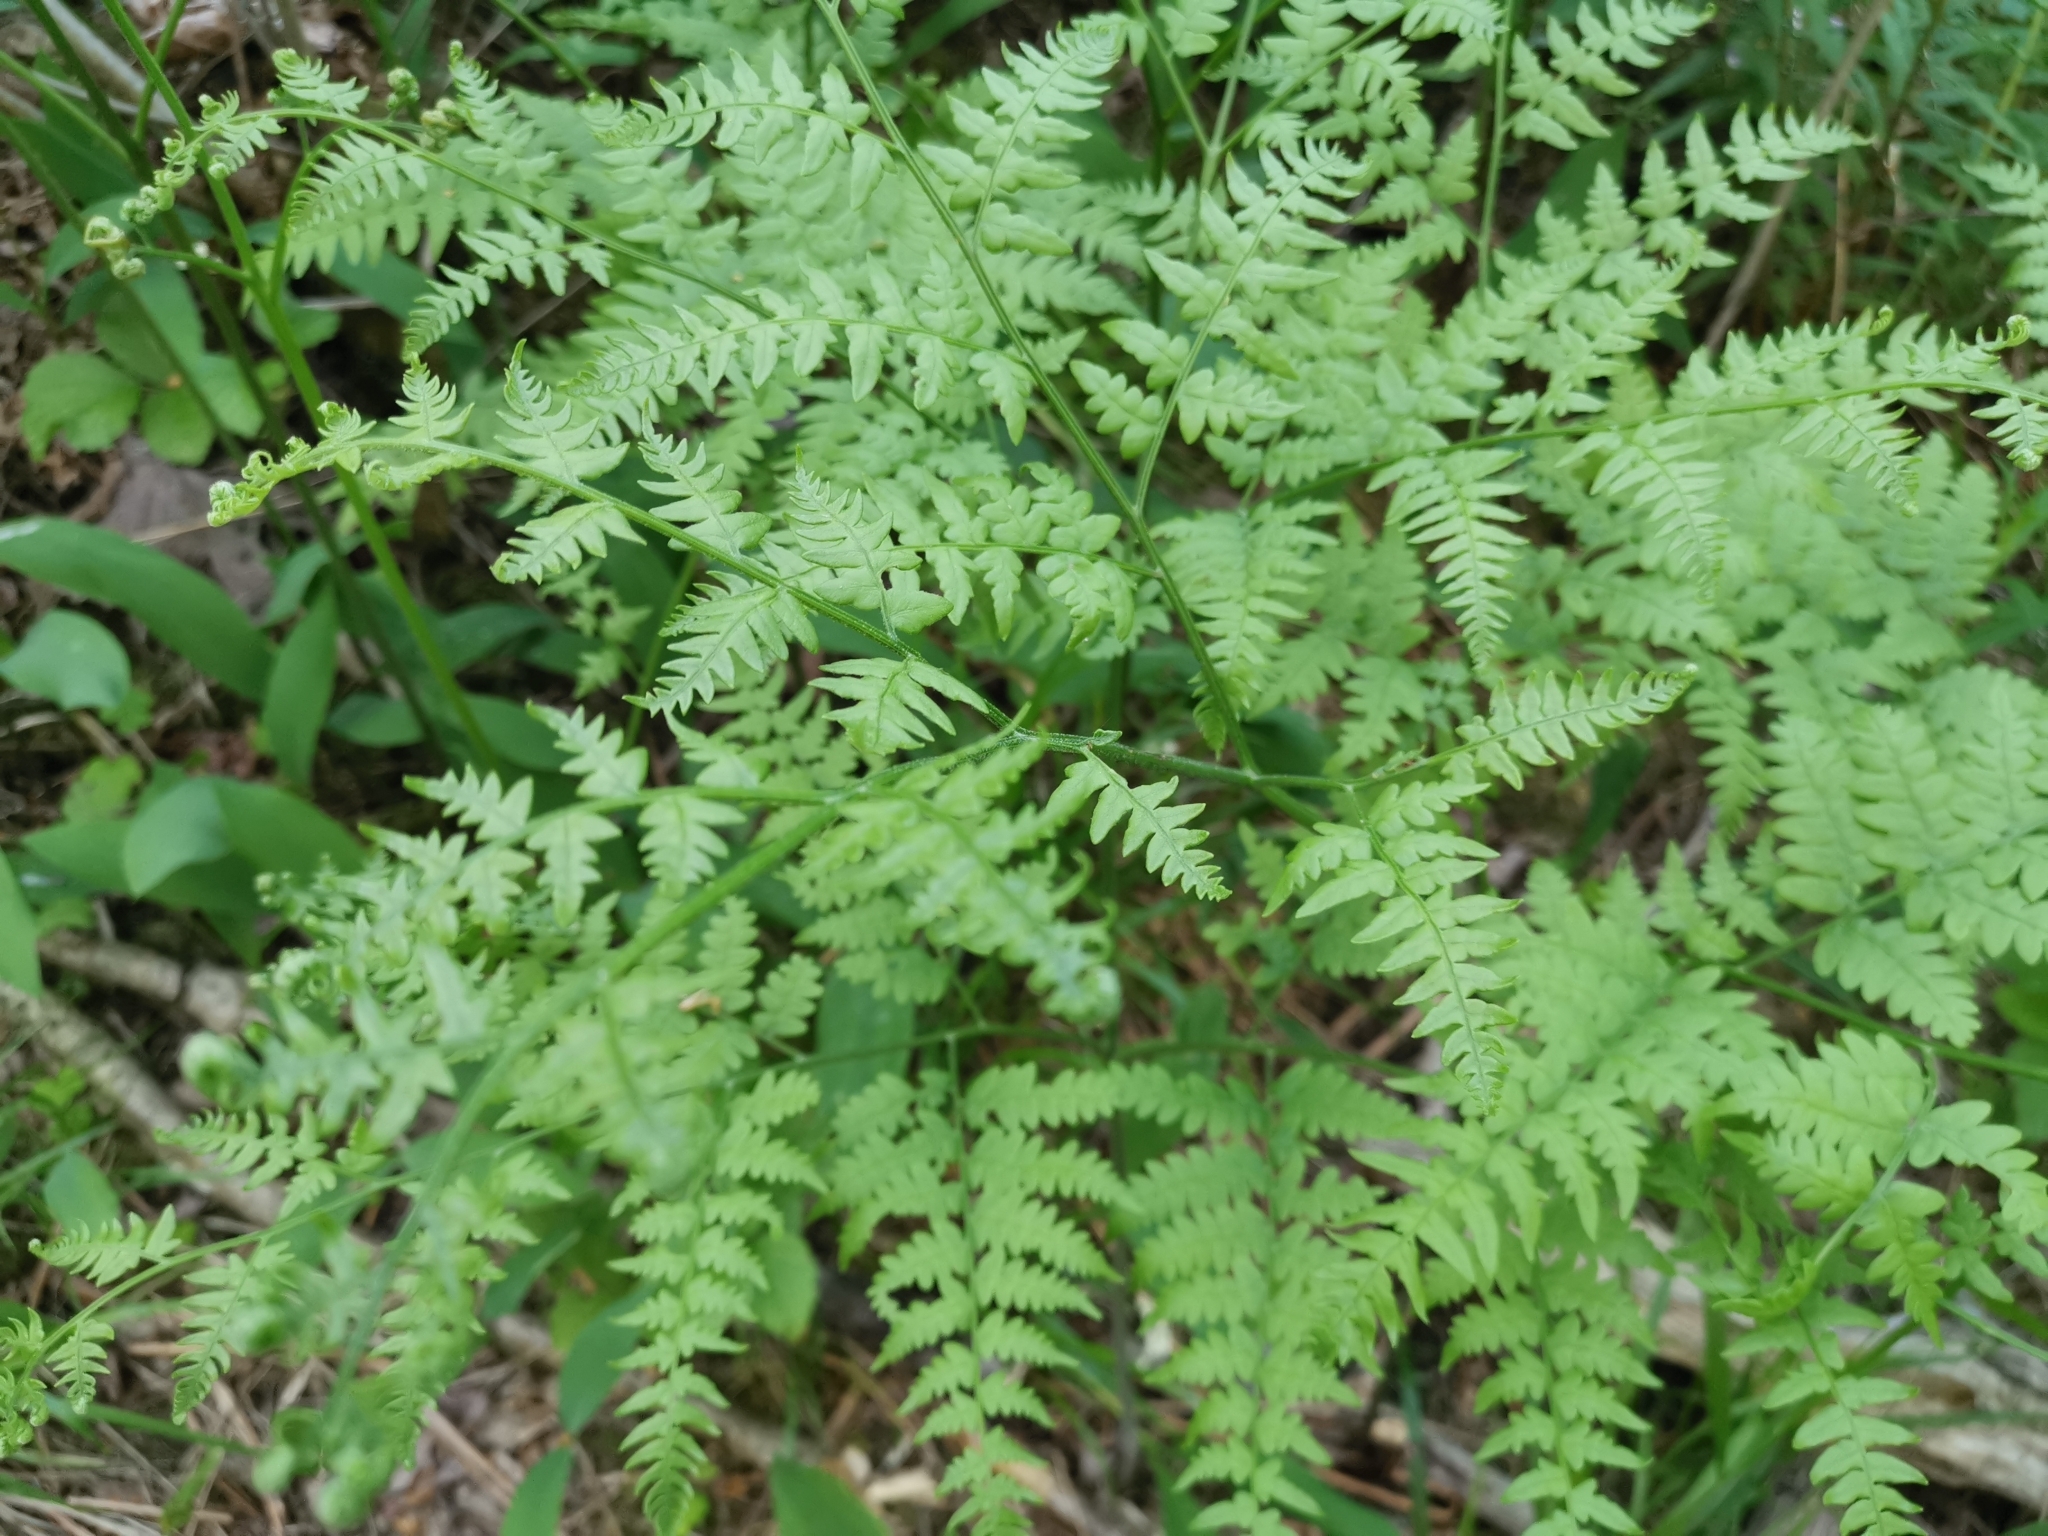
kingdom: Plantae
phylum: Tracheophyta
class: Polypodiopsida
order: Polypodiales
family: Dennstaedtiaceae
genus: Pteridium
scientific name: Pteridium aquilinum
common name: Bracken
